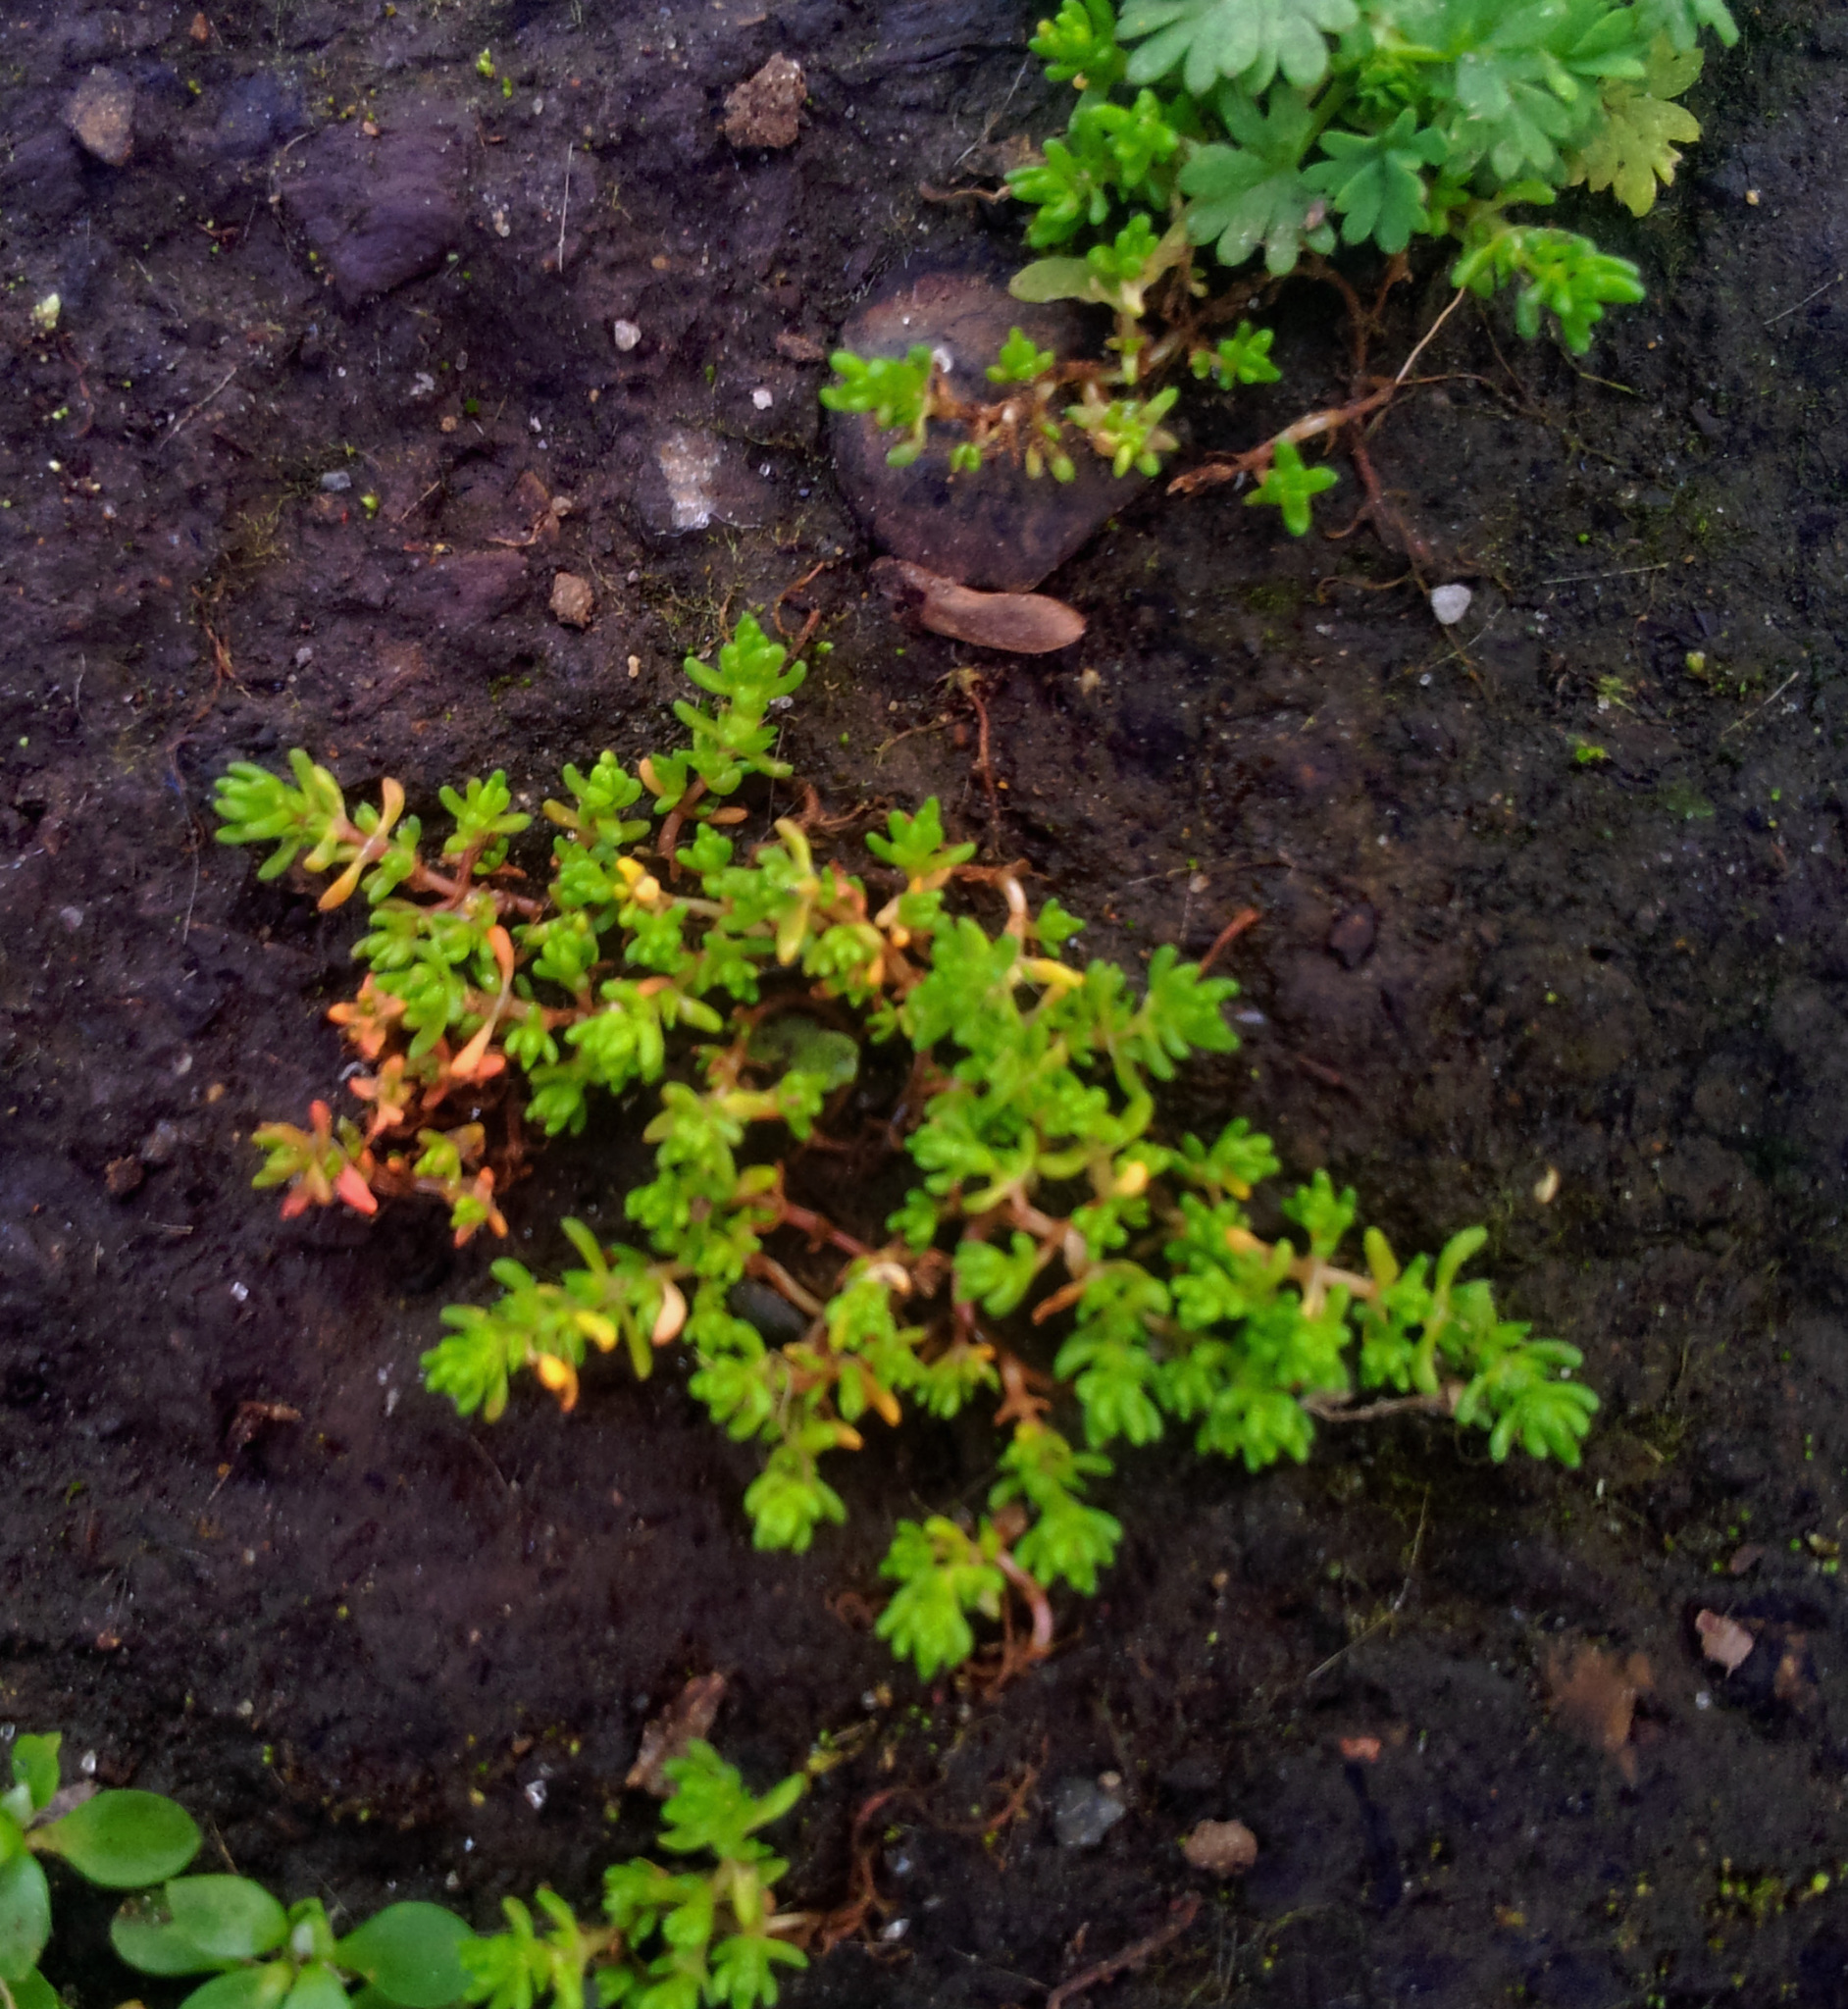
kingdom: Plantae
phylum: Tracheophyta
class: Magnoliopsida
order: Saxifragales
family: Crassulaceae
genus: Crassula
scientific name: Crassula alata
